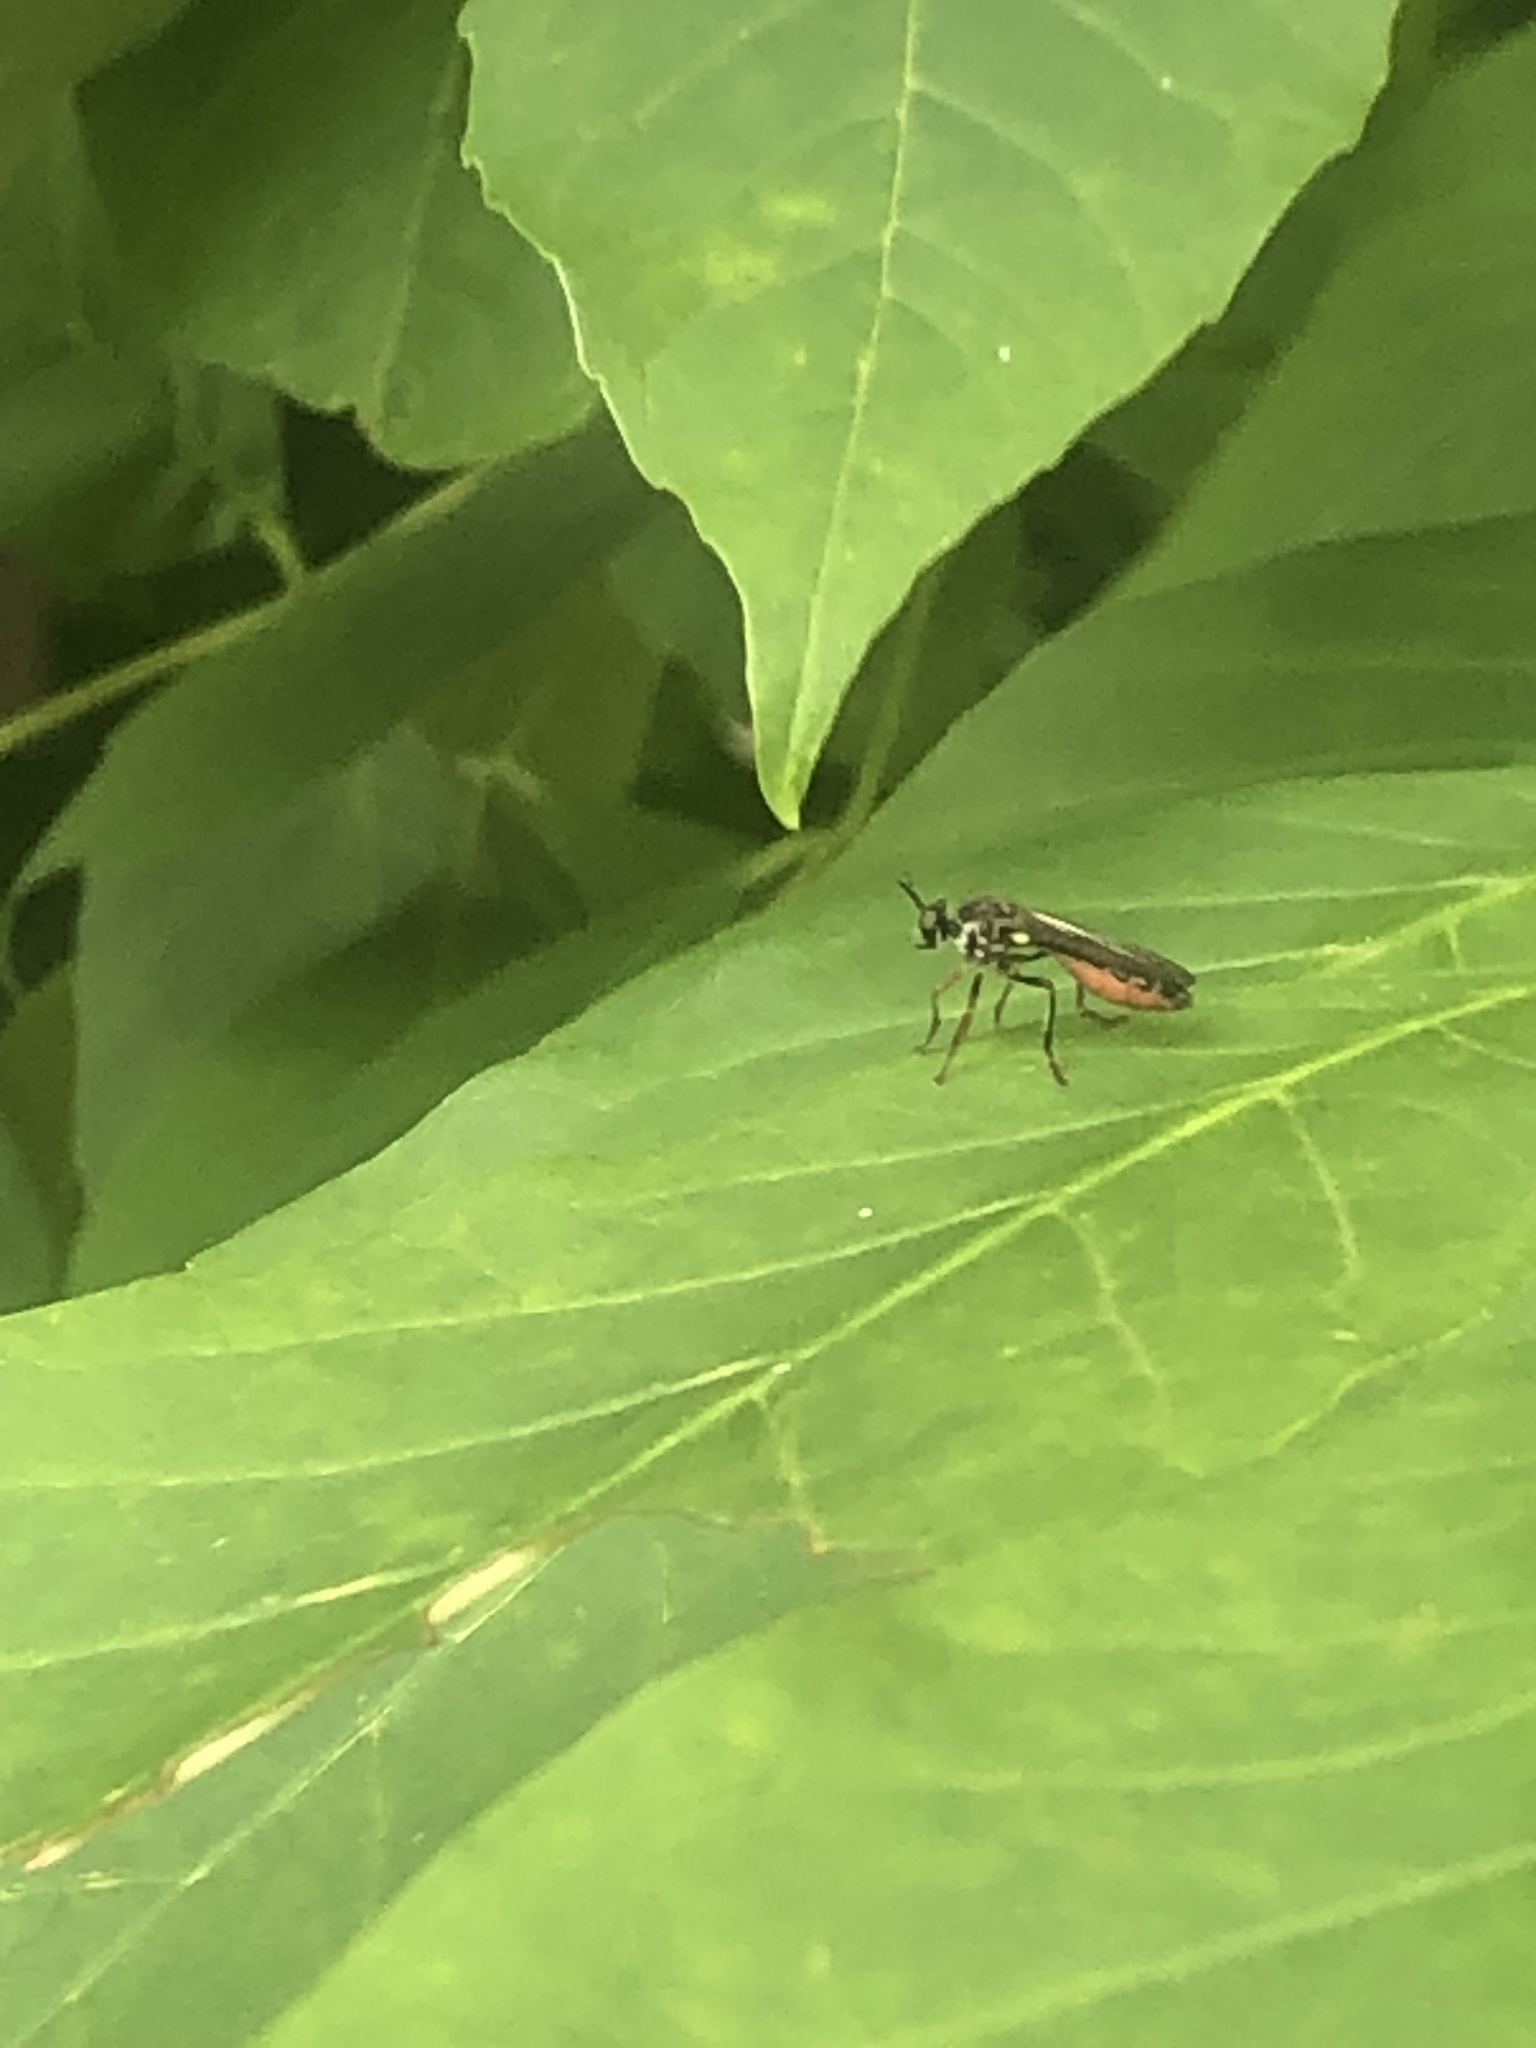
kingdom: Animalia
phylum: Arthropoda
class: Insecta
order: Diptera
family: Asilidae
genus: Dioctria
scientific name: Dioctria hyalipennis
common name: Stripe-legged robberfly
